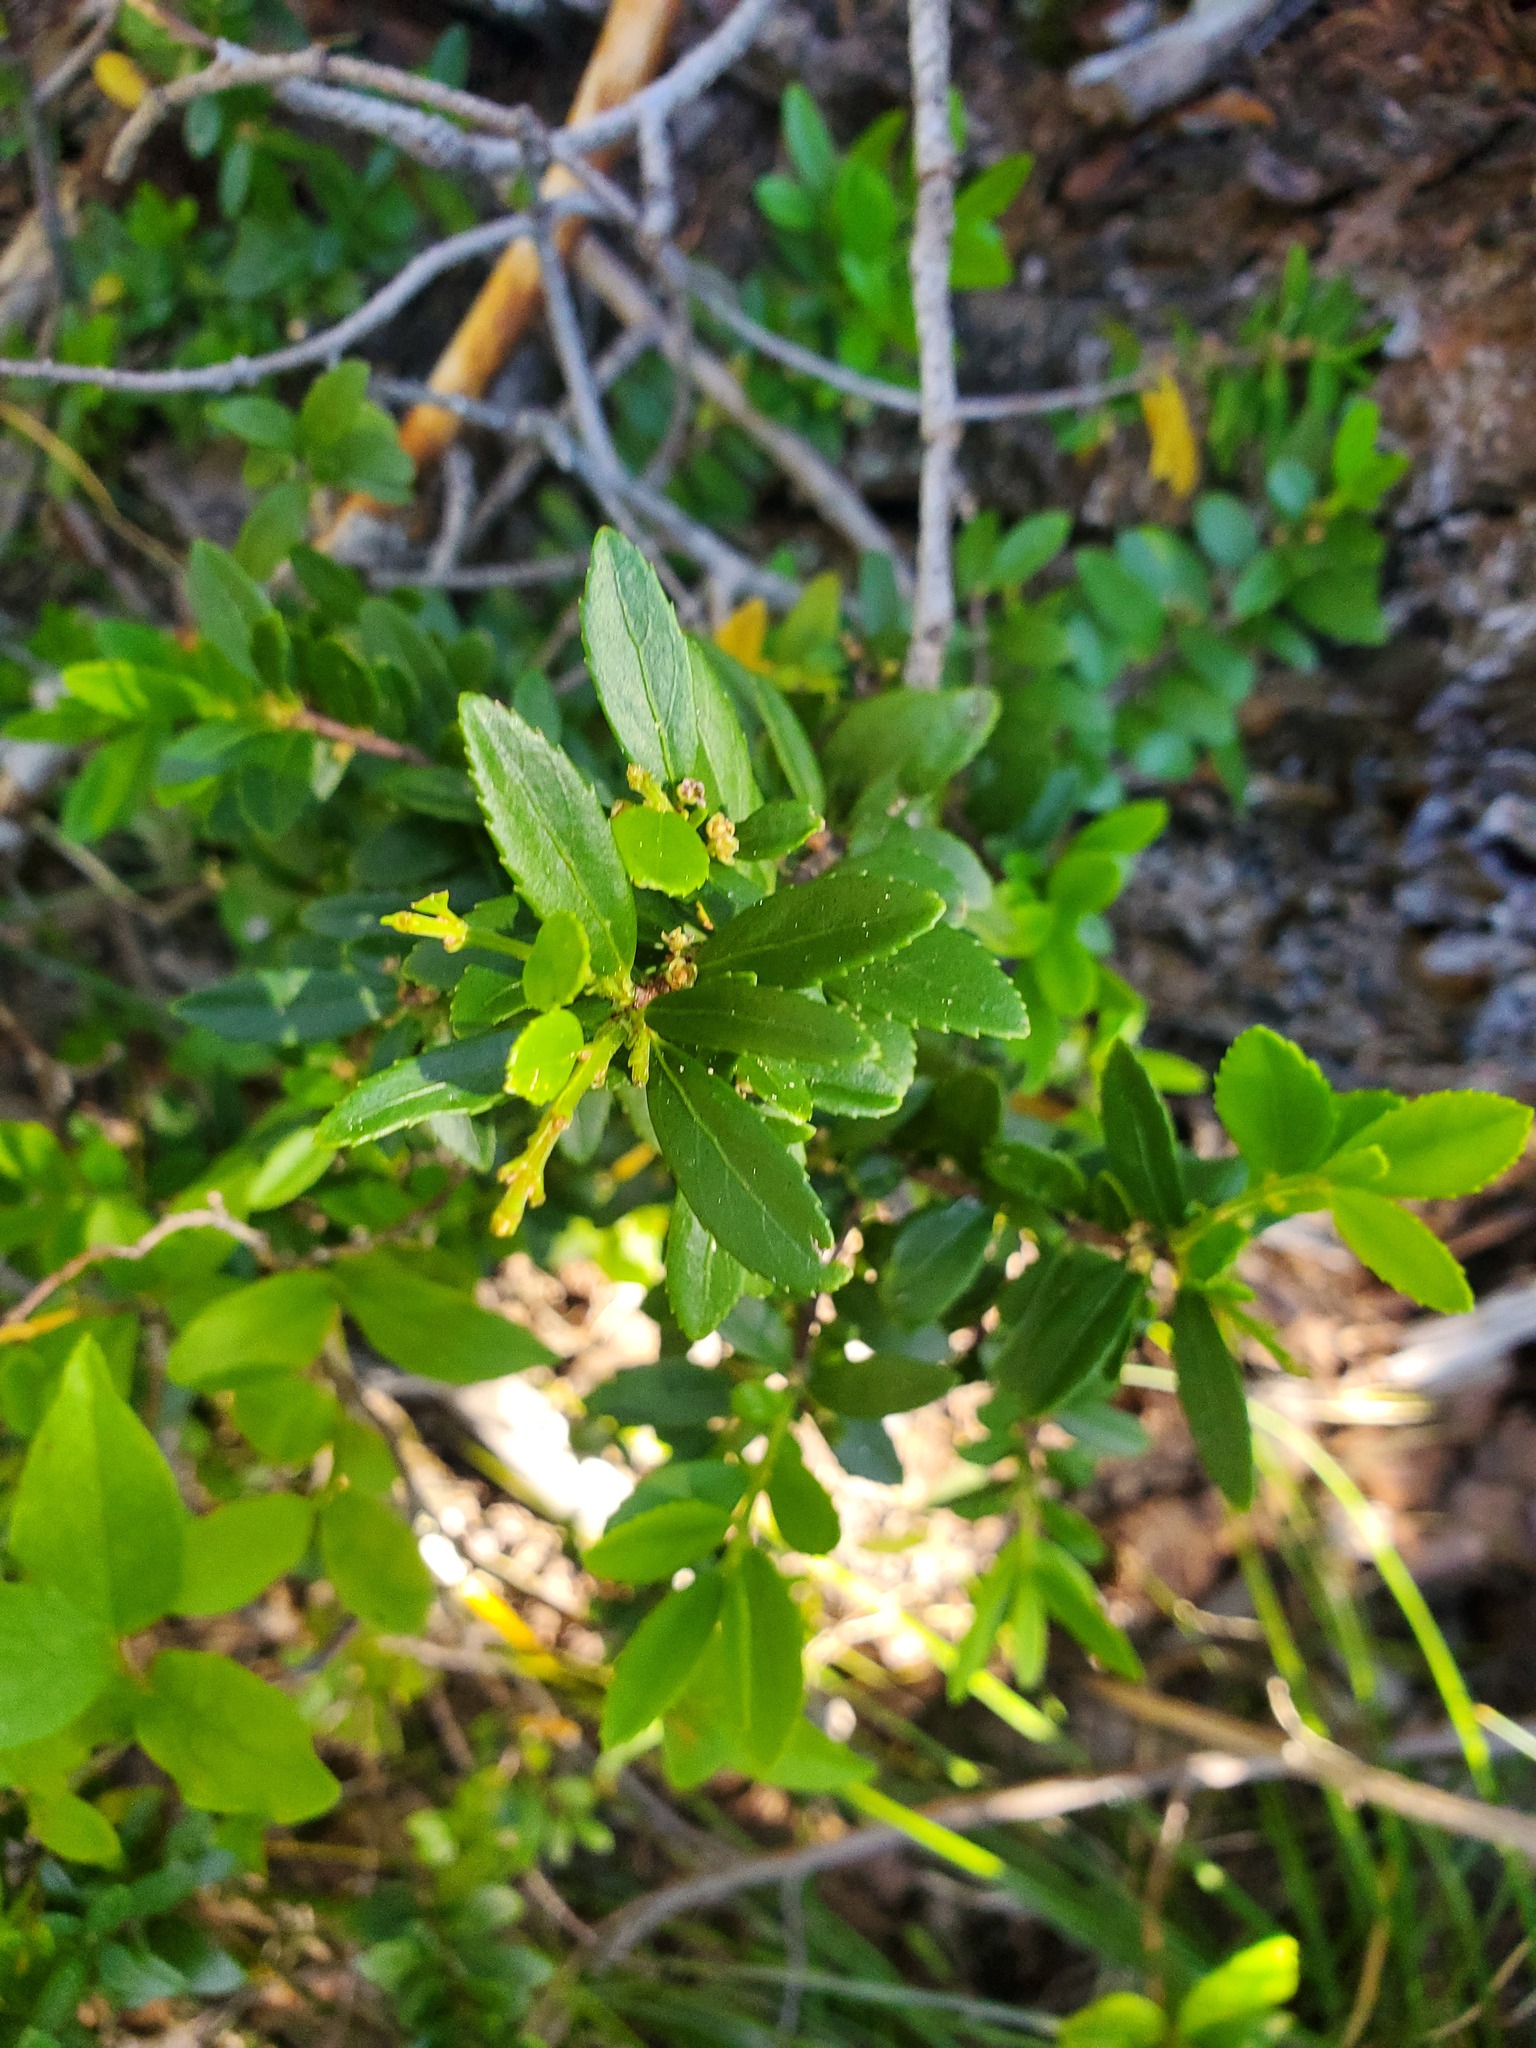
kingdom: Plantae
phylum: Tracheophyta
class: Magnoliopsida
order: Celastrales
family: Celastraceae
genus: Paxistima
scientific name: Paxistima myrsinites
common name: Mountain-lover
